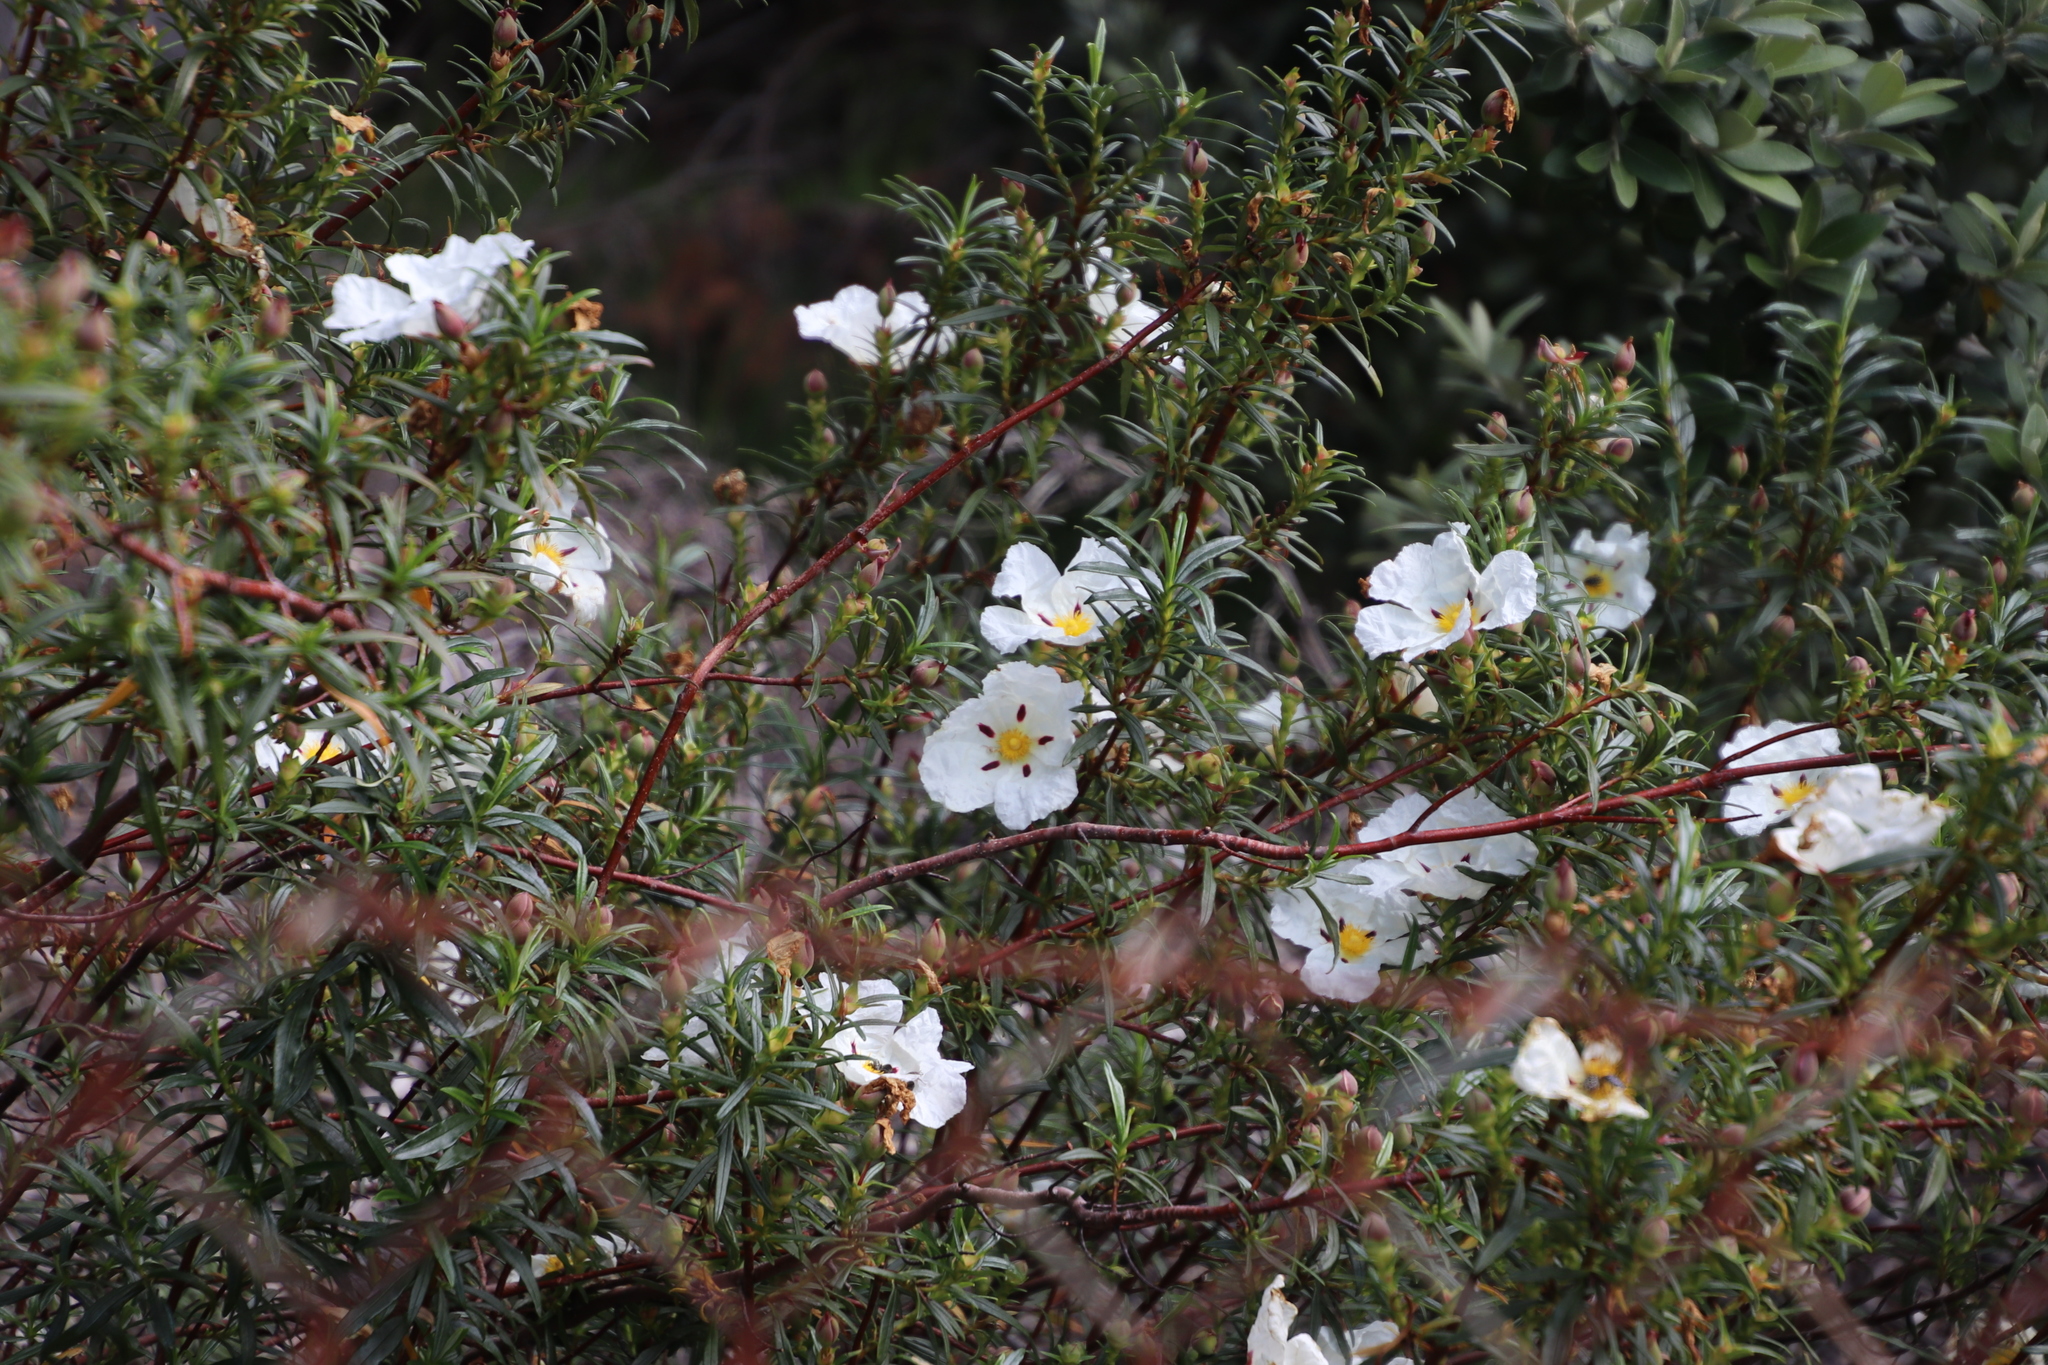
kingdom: Plantae
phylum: Tracheophyta
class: Magnoliopsida
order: Malvales
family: Cistaceae
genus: Cistus
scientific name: Cistus ladanifer
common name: Common gum cistus
